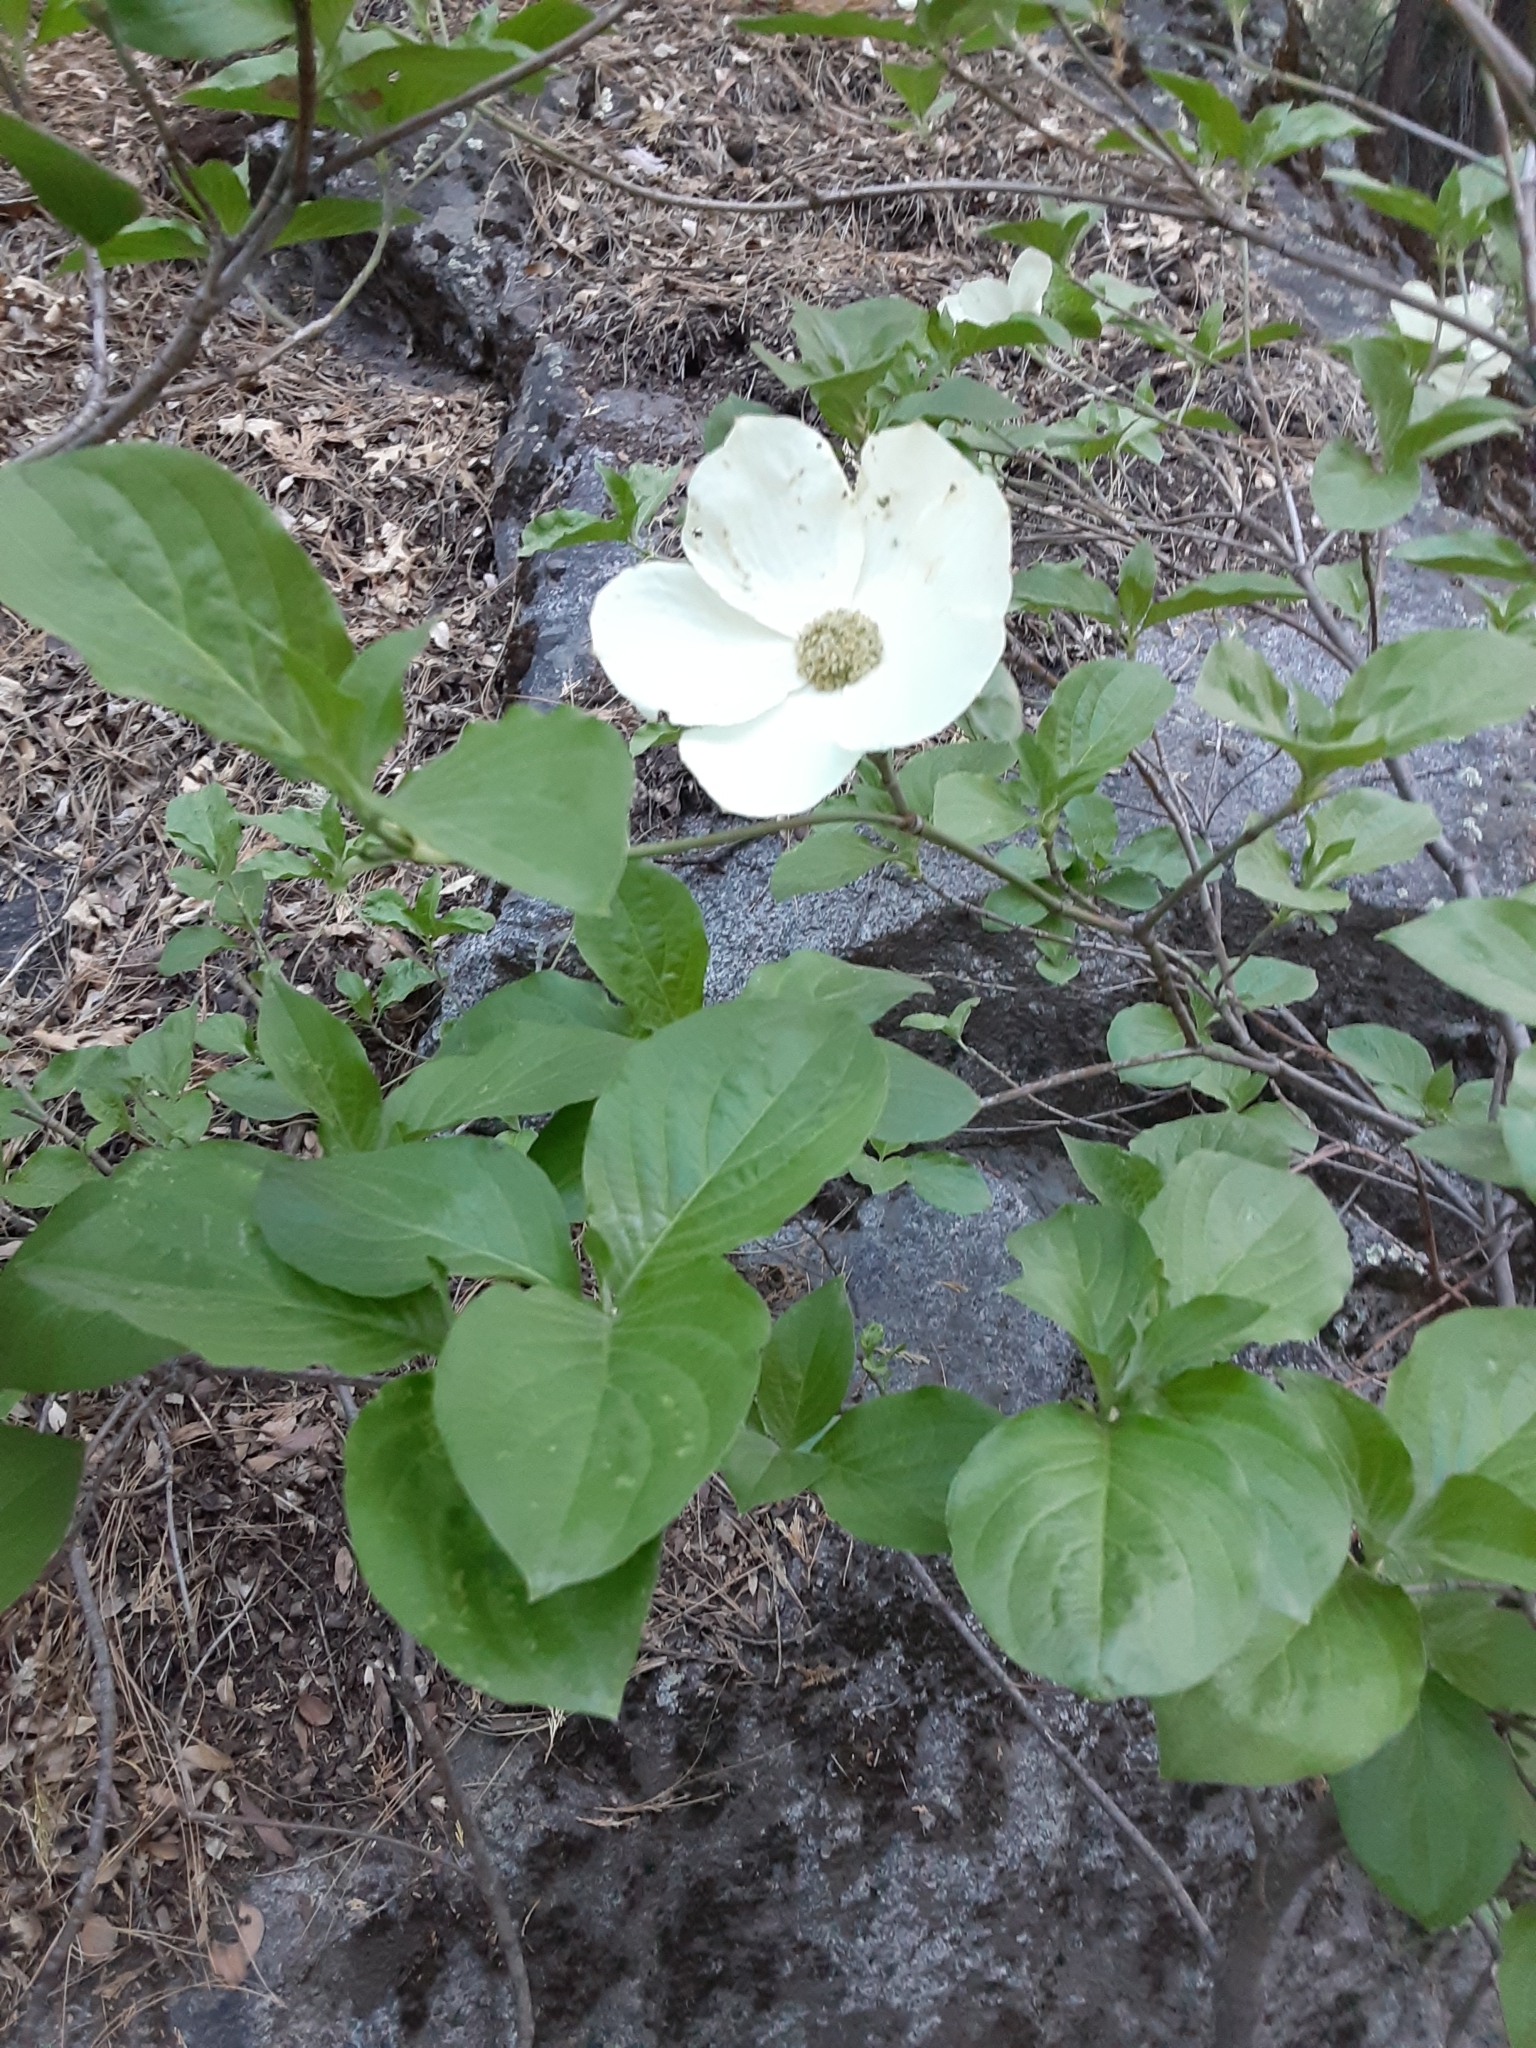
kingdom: Plantae
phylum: Tracheophyta
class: Magnoliopsida
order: Cornales
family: Cornaceae
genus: Cornus
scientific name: Cornus nuttallii
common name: Pacific dogwood
